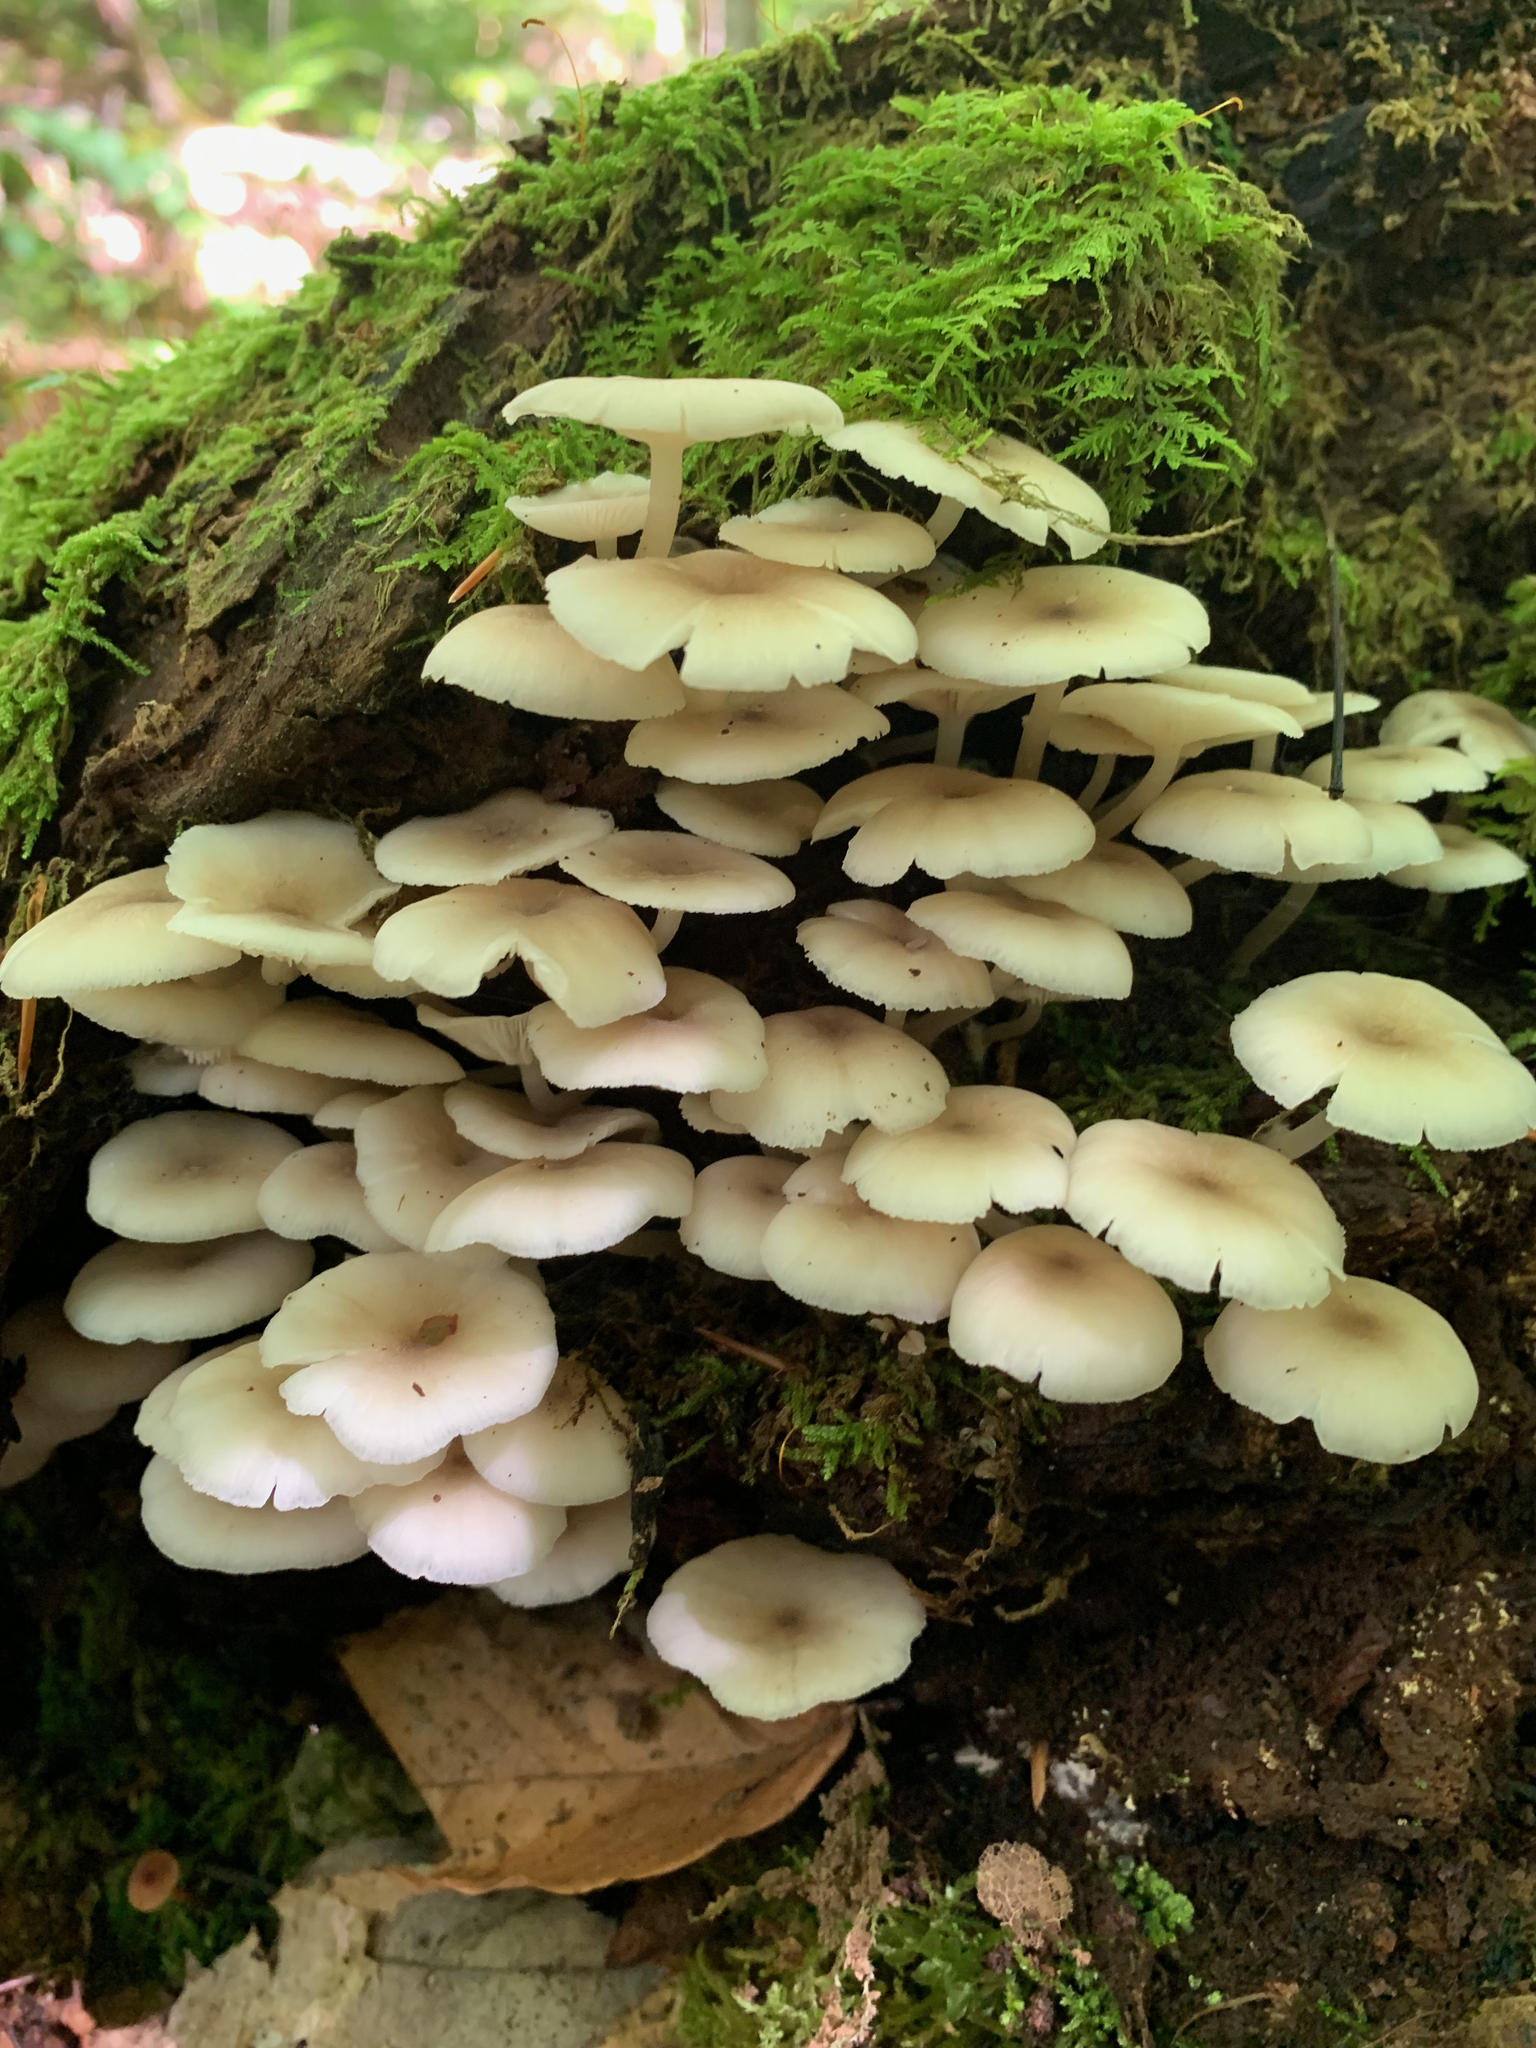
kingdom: Fungi
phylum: Basidiomycota
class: Agaricomycetes
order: Agaricales
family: Marasmiaceae
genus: Clitocybula
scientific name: Clitocybula oculus
